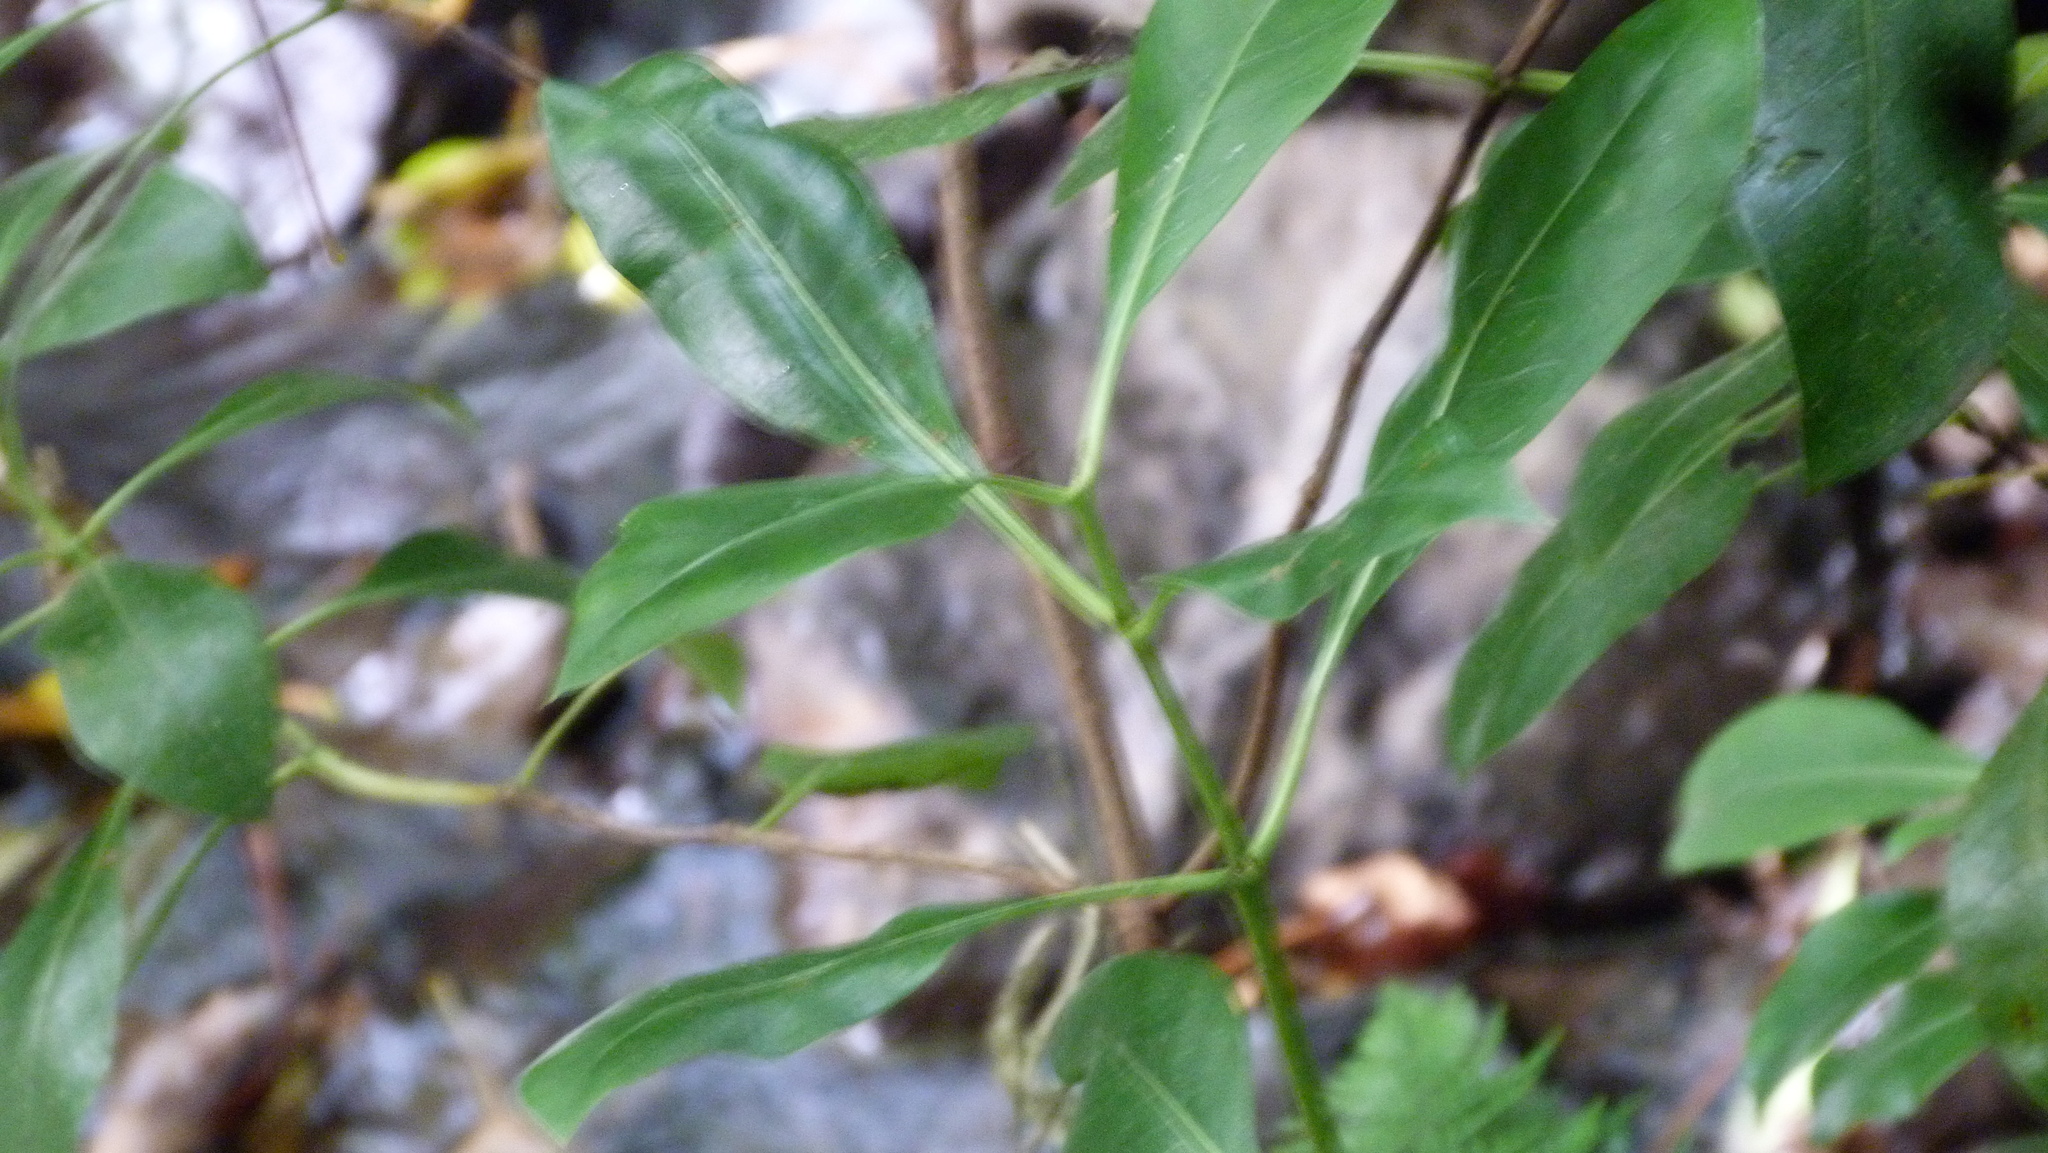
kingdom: Plantae
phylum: Tracheophyta
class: Magnoliopsida
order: Gentianales
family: Rubiaceae
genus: Coprosma
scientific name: Coprosma lucida
